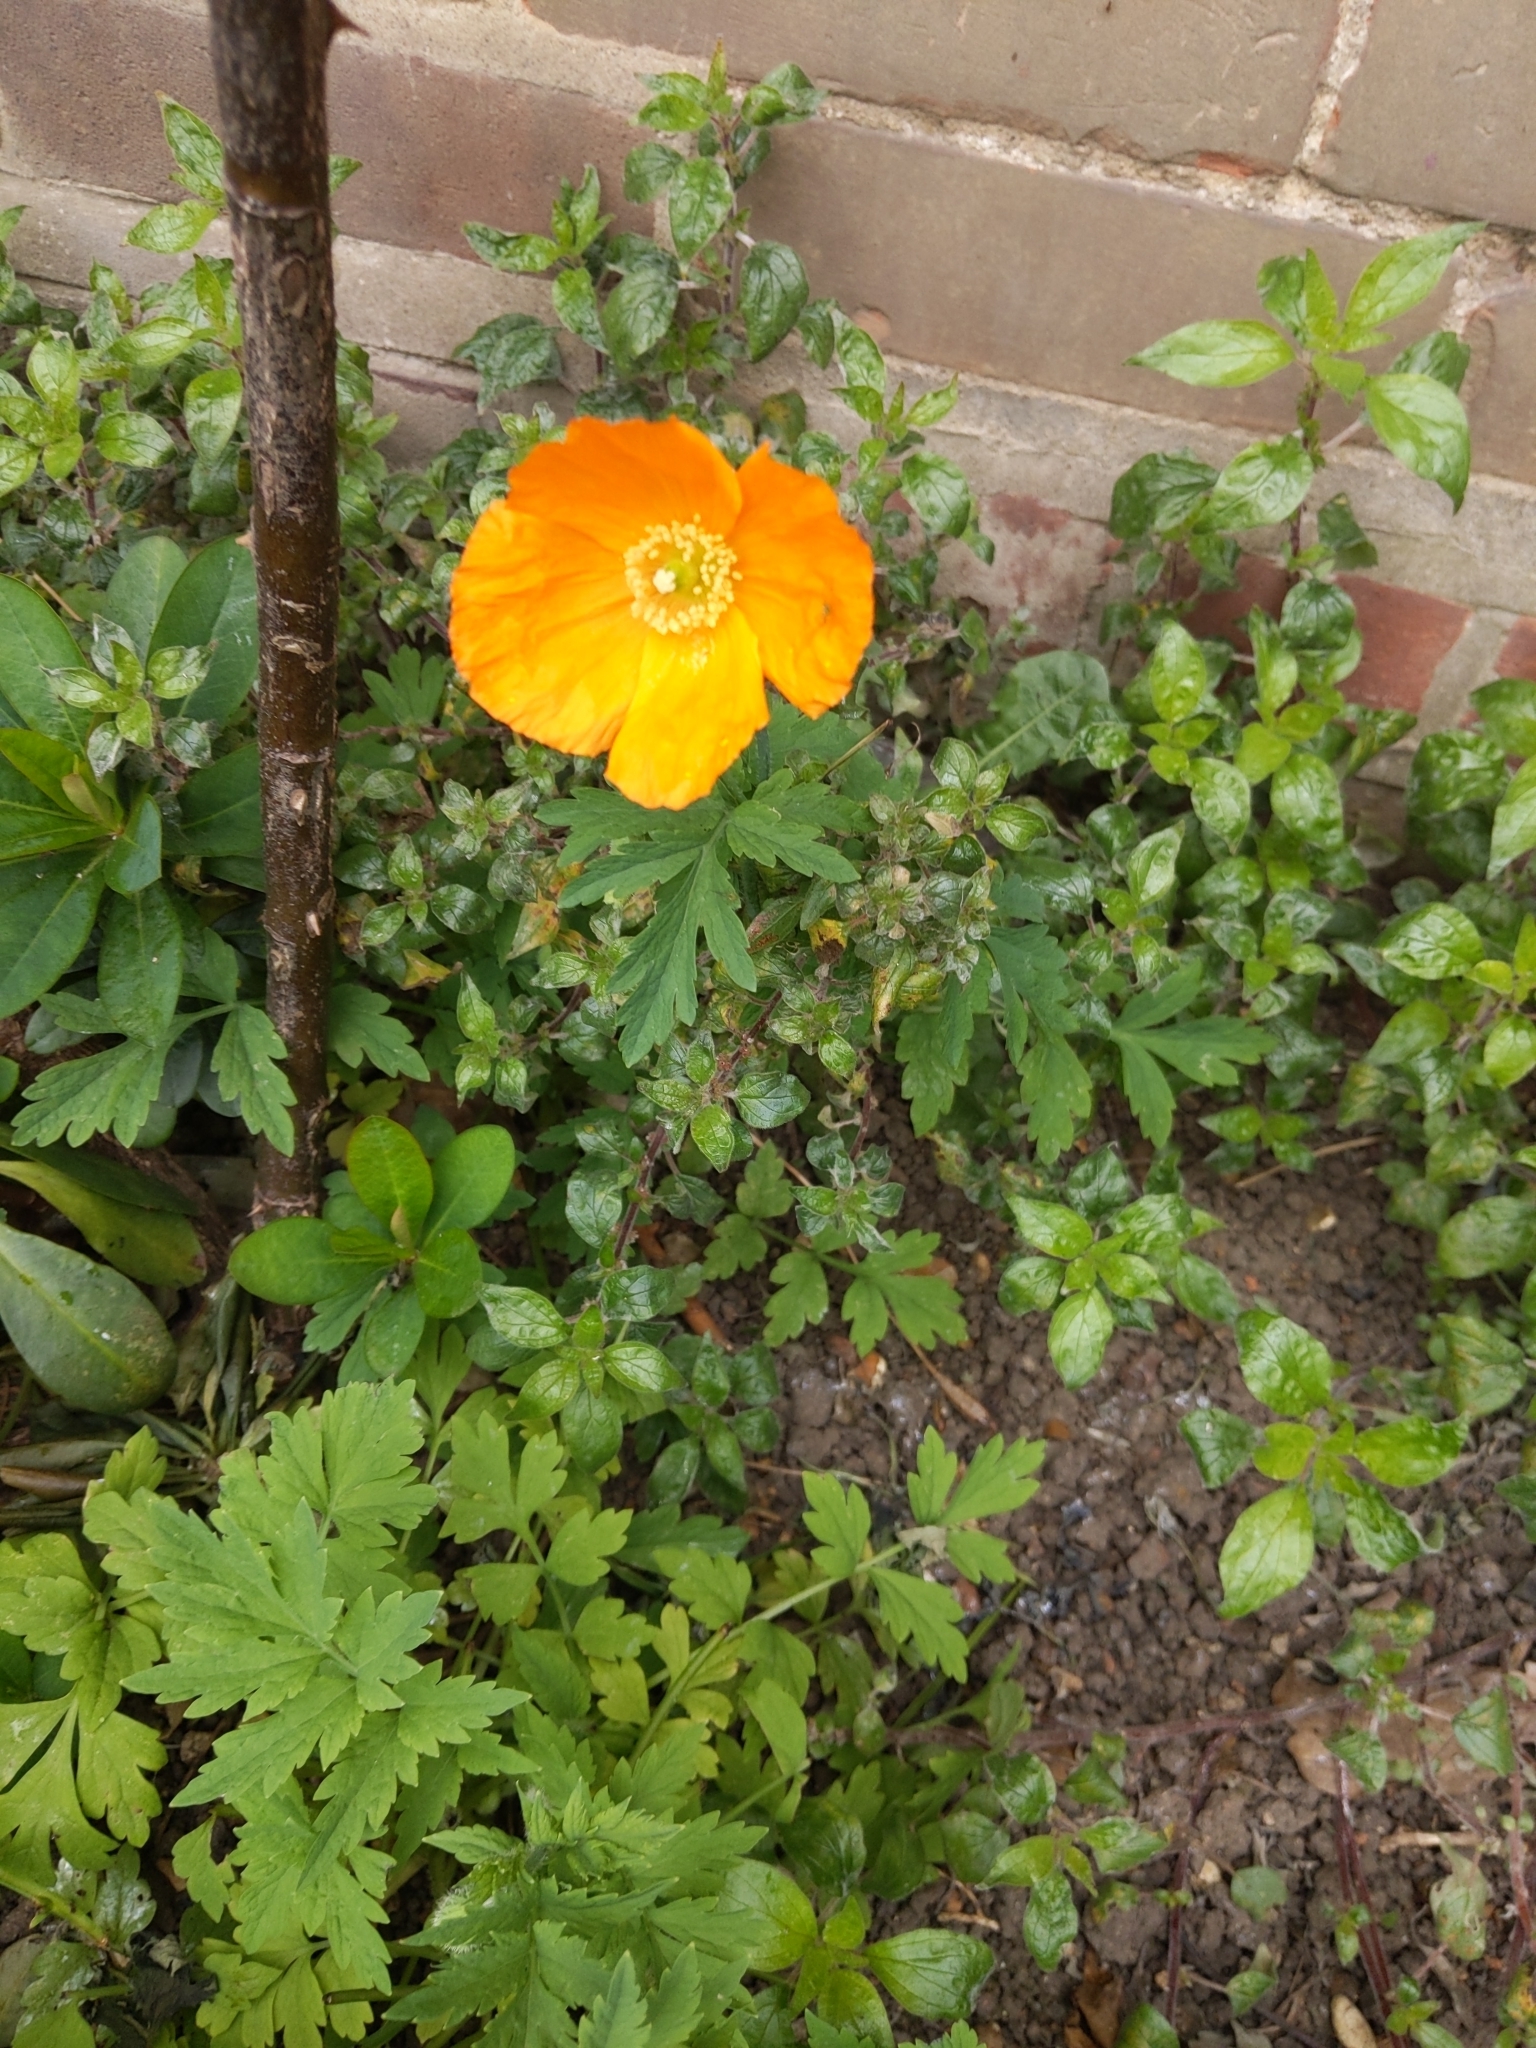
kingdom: Plantae
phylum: Tracheophyta
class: Magnoliopsida
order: Ranunculales
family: Papaveraceae
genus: Papaver
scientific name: Papaver cambricum
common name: Poppy
